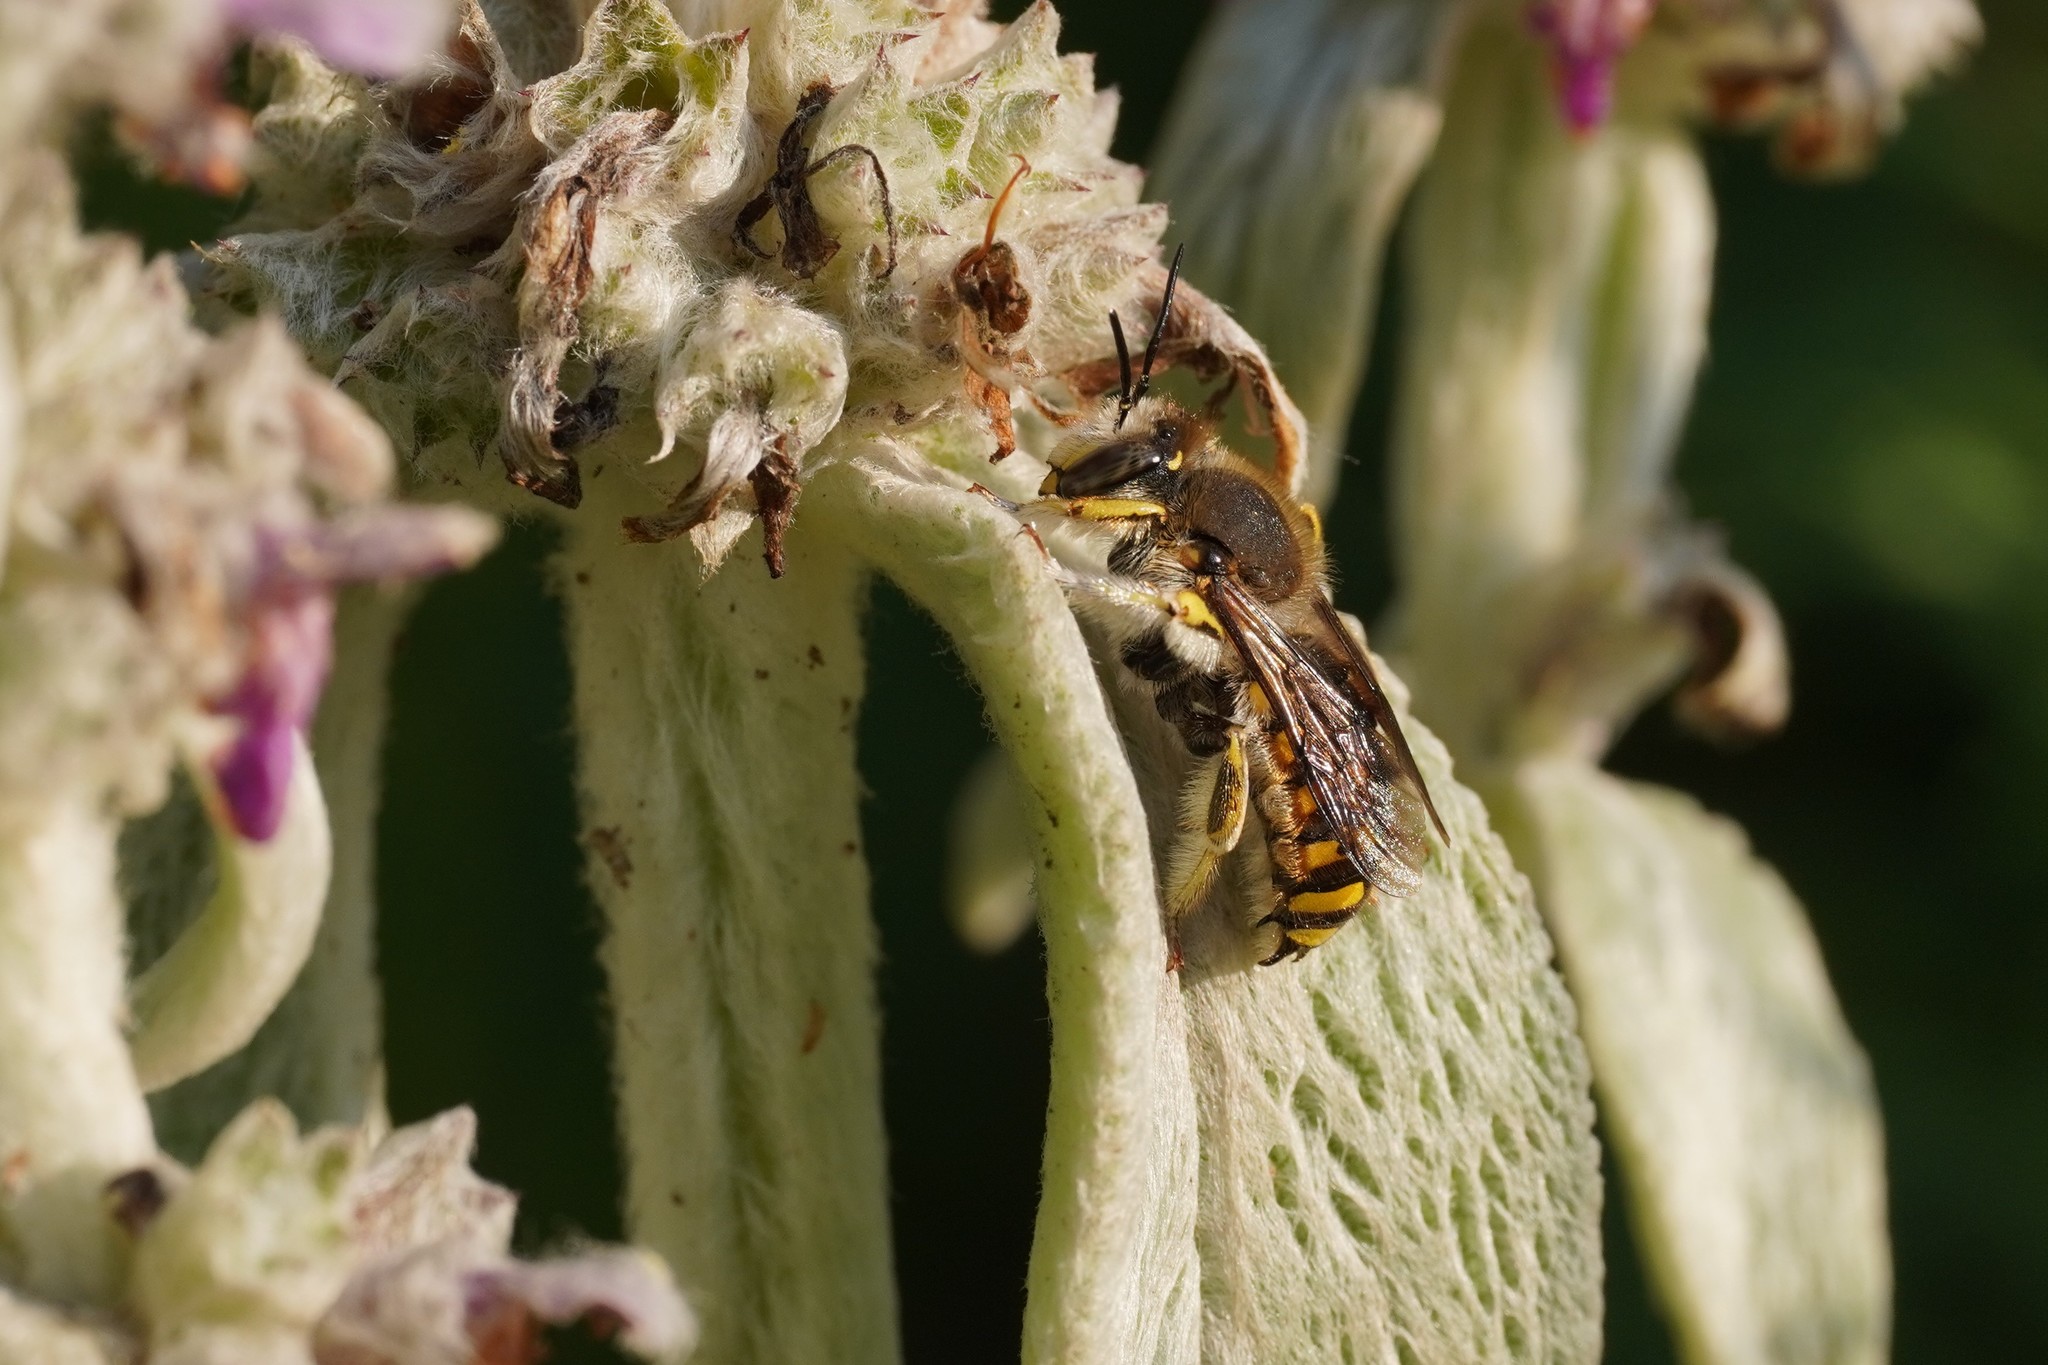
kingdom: Animalia
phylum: Arthropoda
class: Insecta
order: Hymenoptera
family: Megachilidae
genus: Anthidium
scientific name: Anthidium manicatum
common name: Wool carder bee
